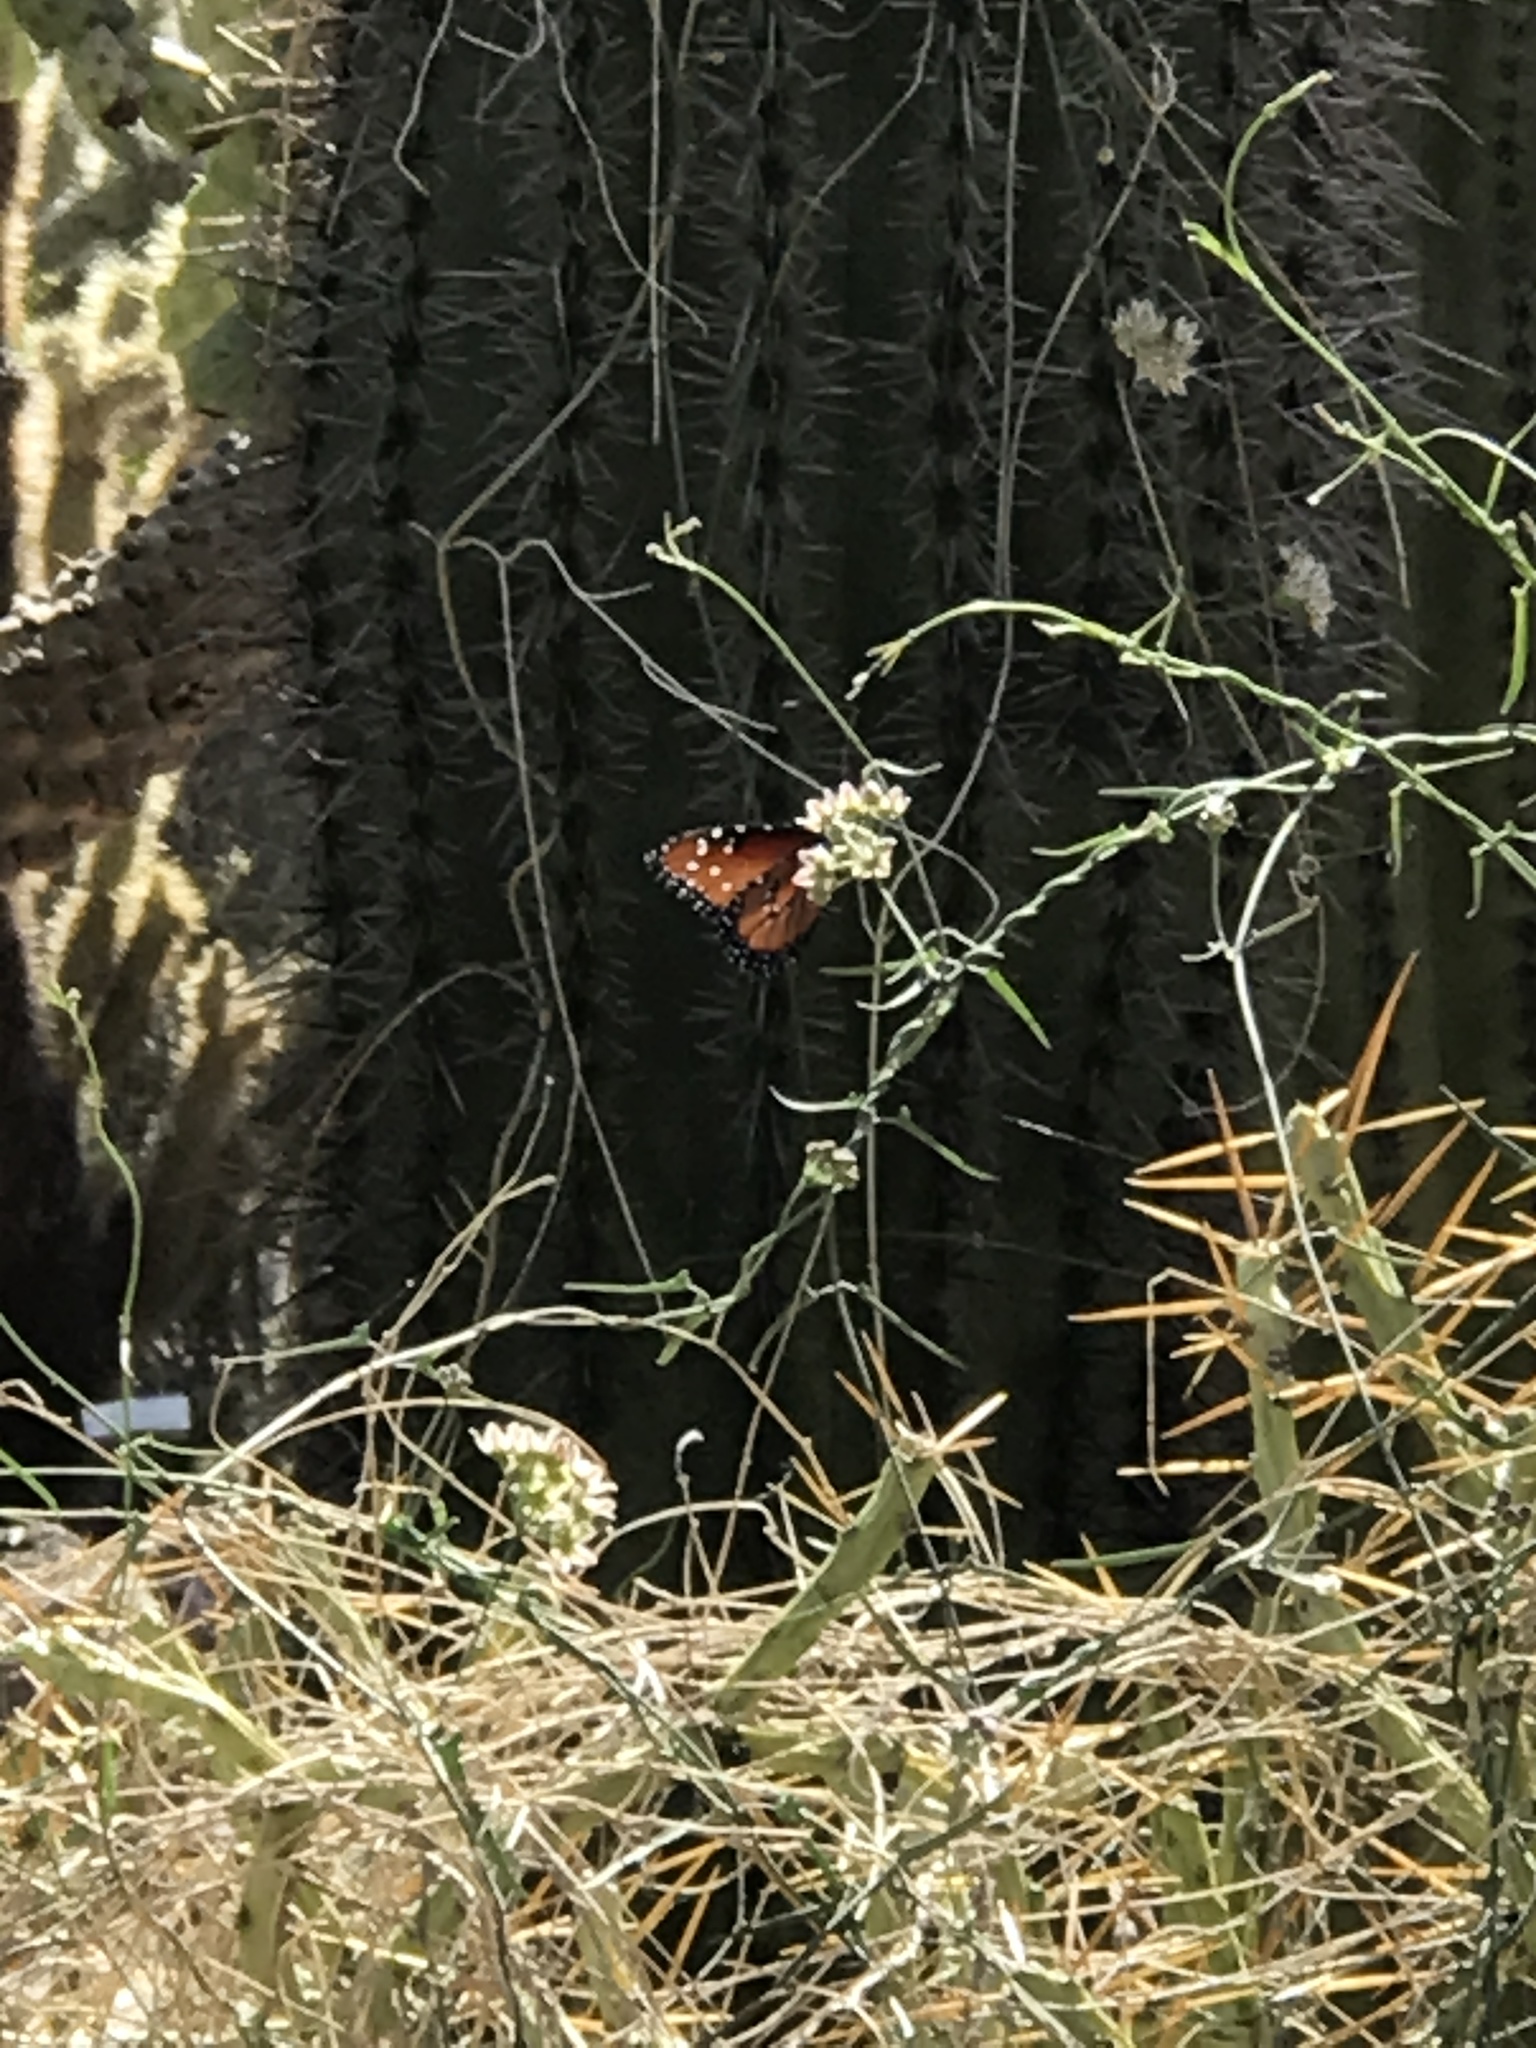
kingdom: Animalia
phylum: Arthropoda
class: Insecta
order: Lepidoptera
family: Nymphalidae
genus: Danaus
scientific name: Danaus gilippus
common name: Queen
